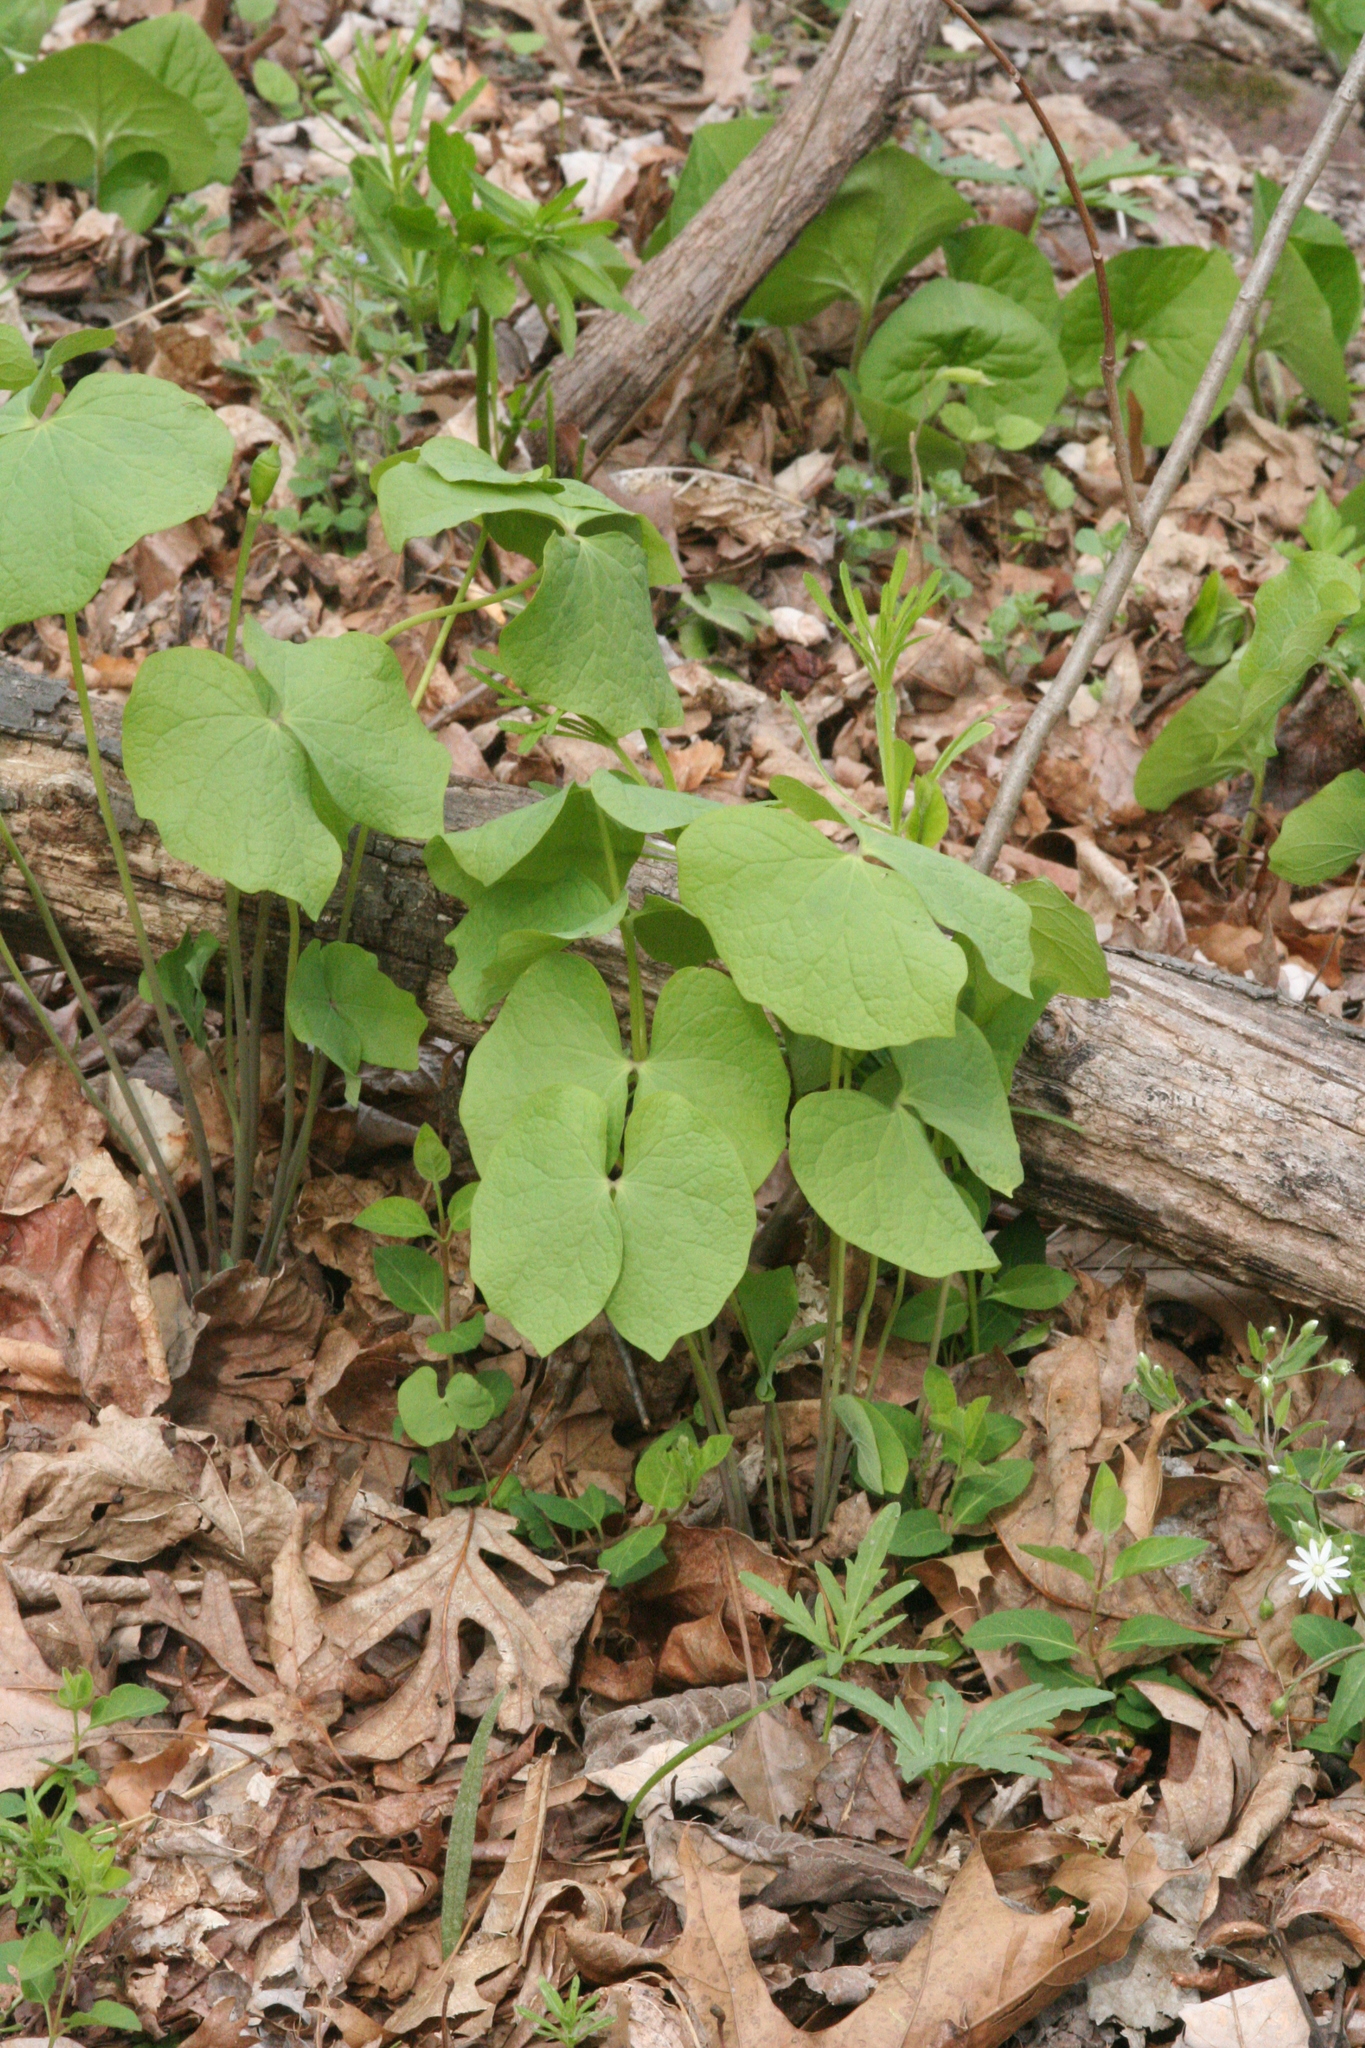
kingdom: Plantae
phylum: Tracheophyta
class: Magnoliopsida
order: Ranunculales
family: Berberidaceae
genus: Jeffersonia
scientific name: Jeffersonia diphylla
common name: Rheumatism-root
